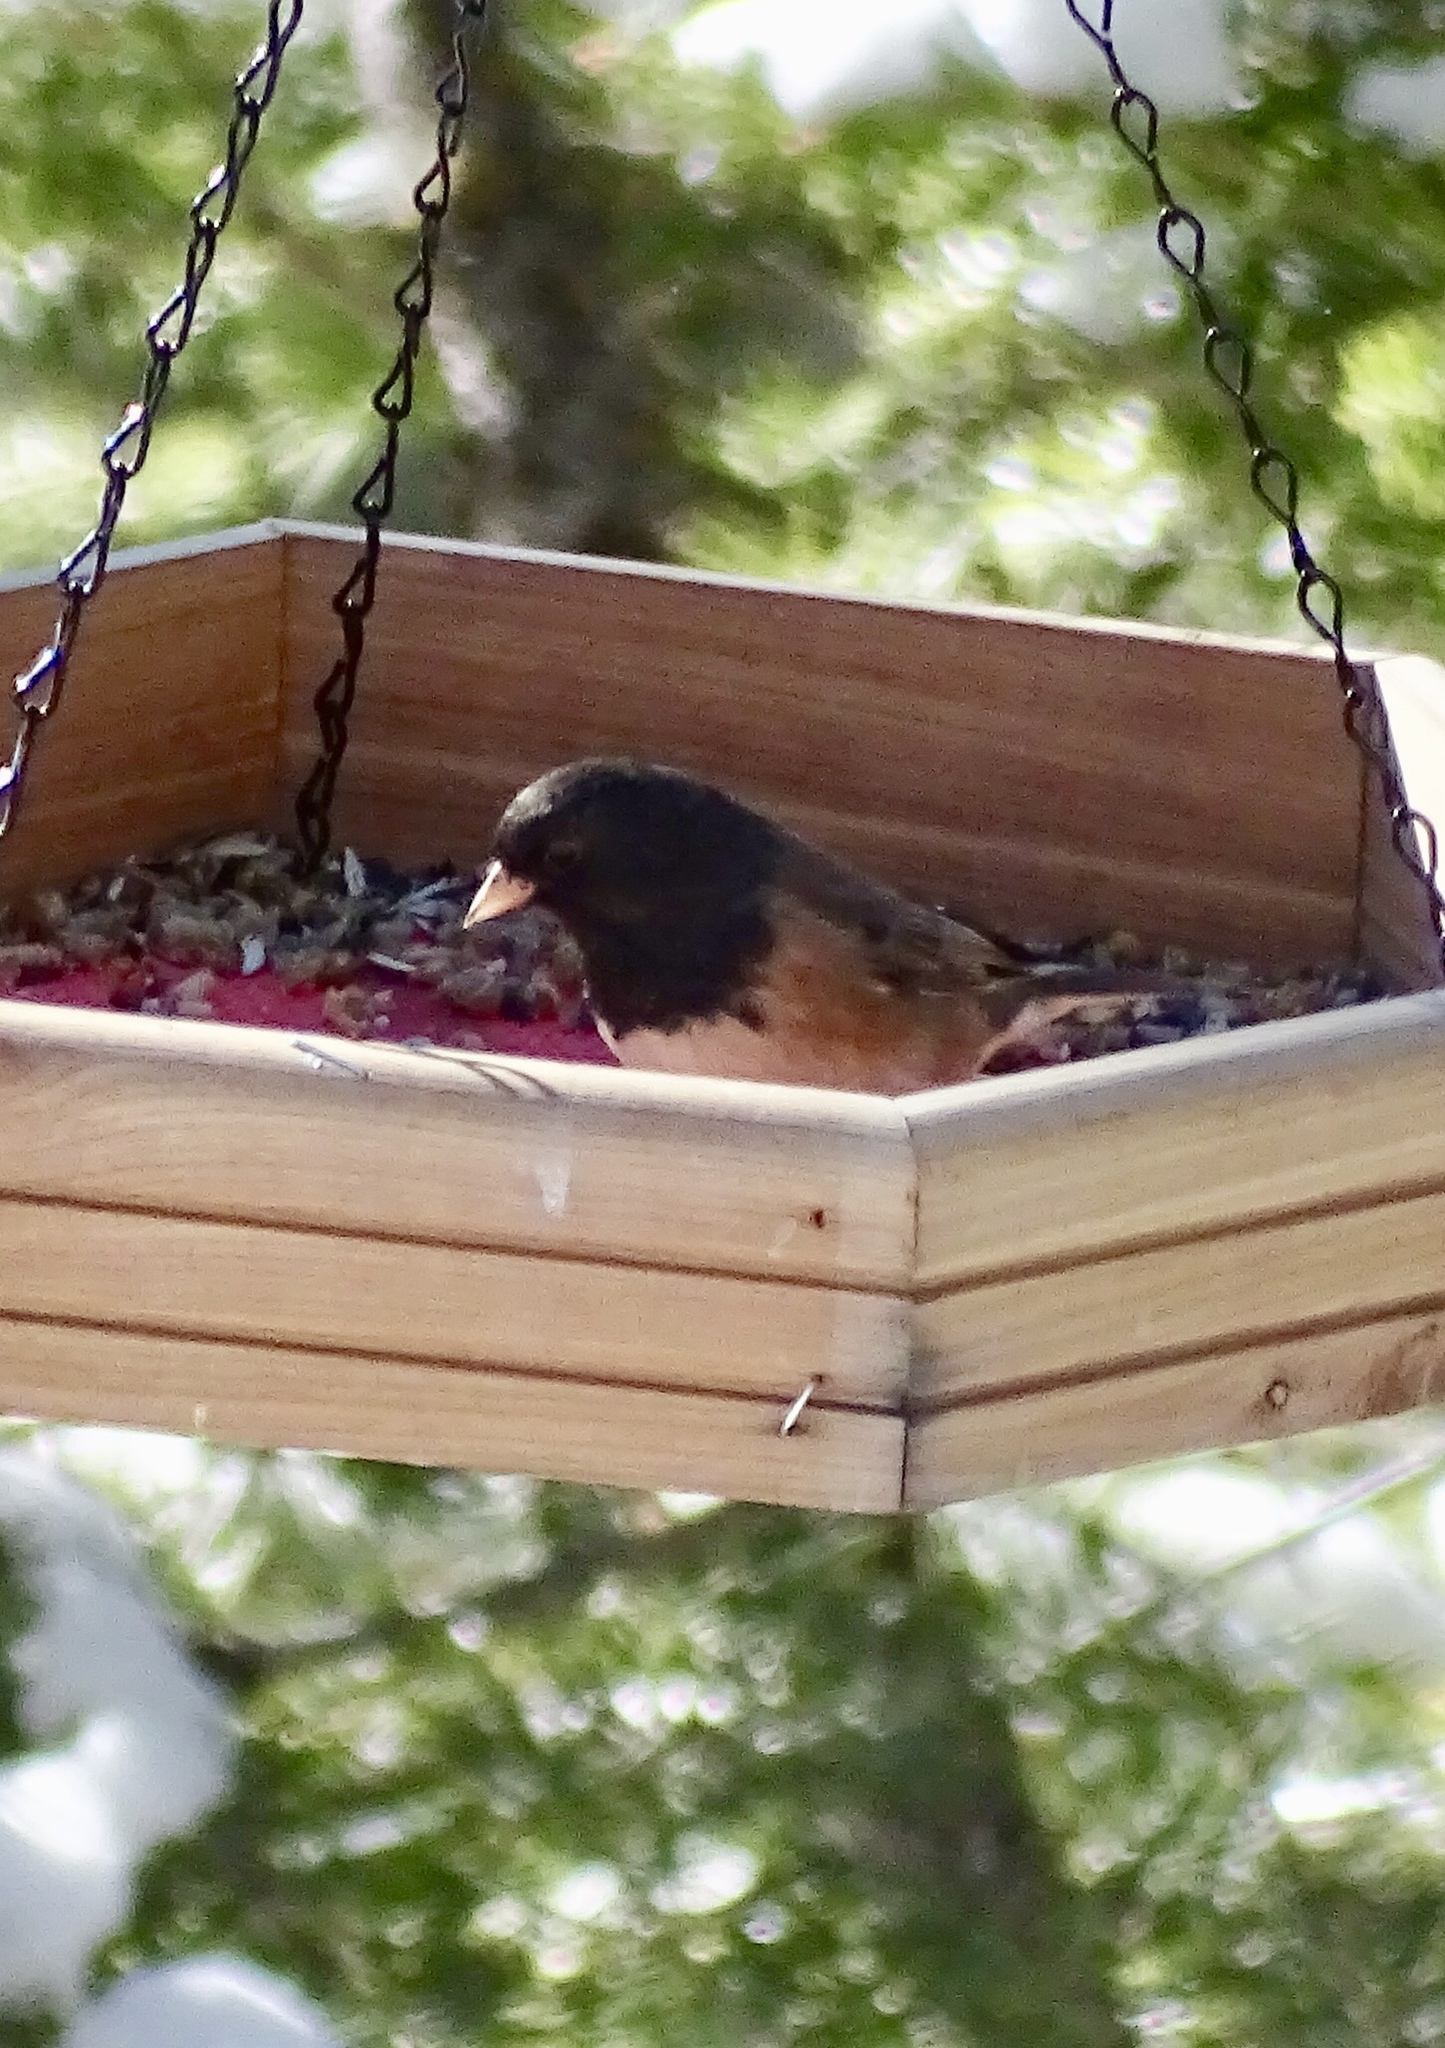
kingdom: Animalia
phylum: Chordata
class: Aves
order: Passeriformes
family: Passerellidae
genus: Junco
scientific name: Junco hyemalis
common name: Dark-eyed junco
